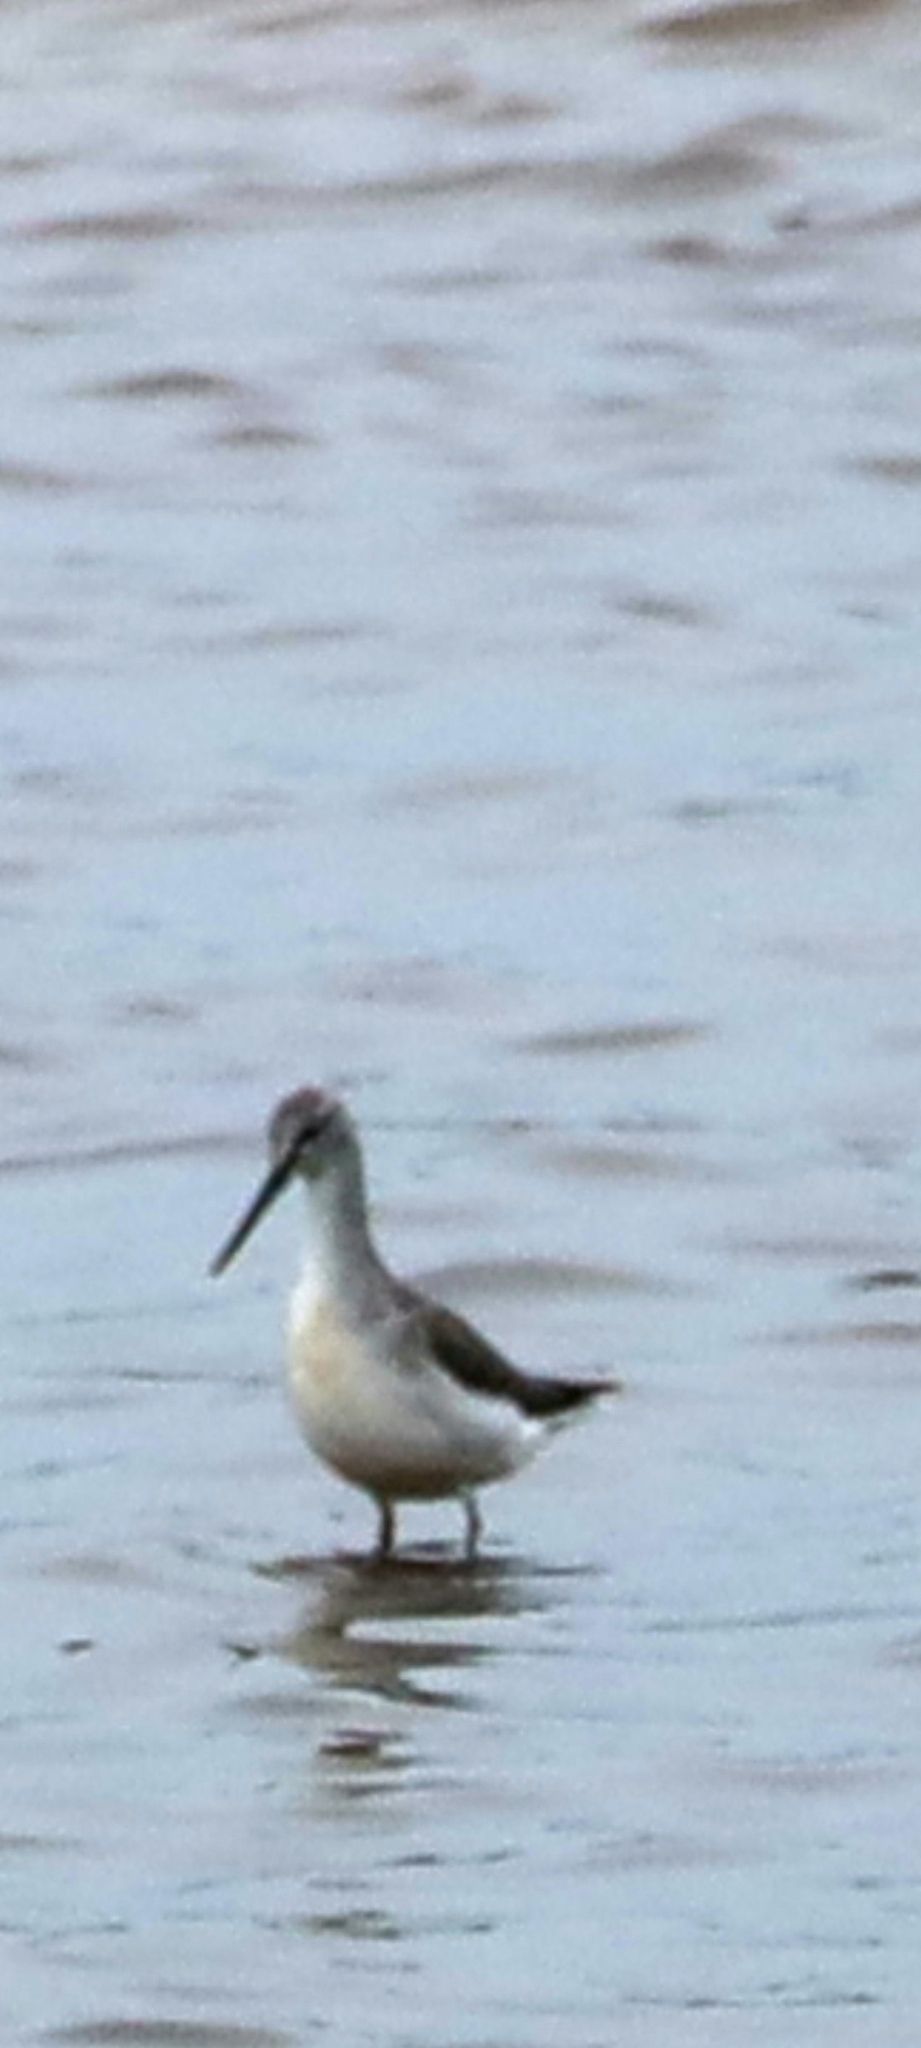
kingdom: Animalia
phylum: Chordata
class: Aves
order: Charadriiformes
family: Scolopacidae
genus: Tringa
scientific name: Tringa nebularia
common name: Common greenshank
